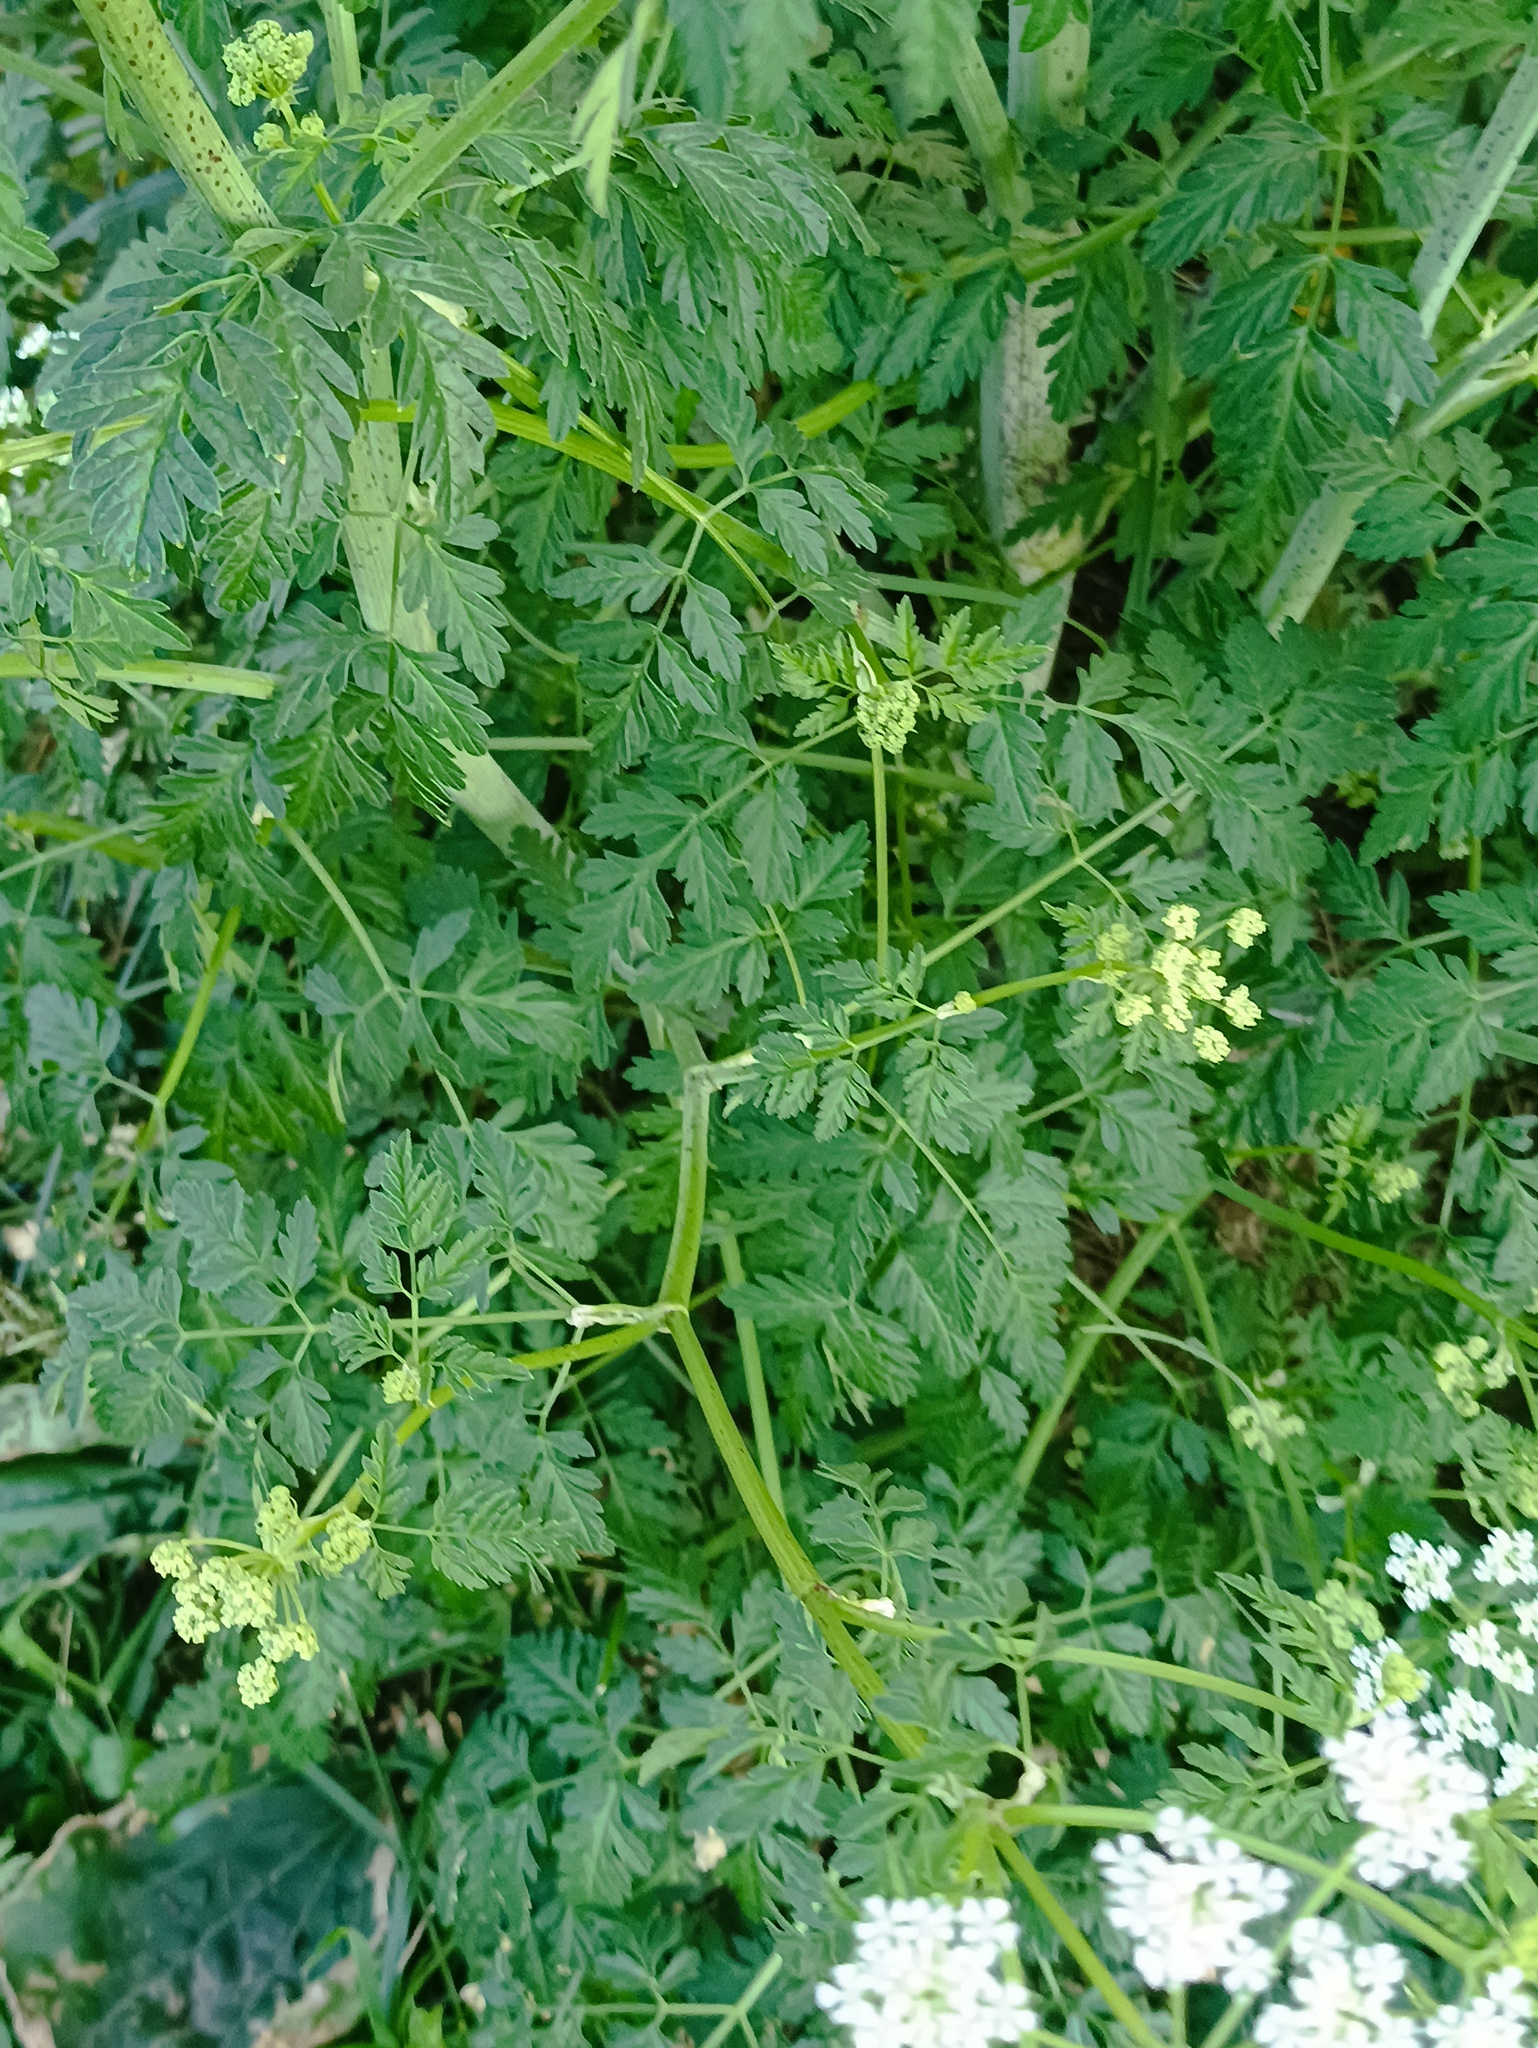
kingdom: Plantae
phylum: Tracheophyta
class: Magnoliopsida
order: Apiales
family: Apiaceae
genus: Conium
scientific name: Conium maculatum
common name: Hemlock
